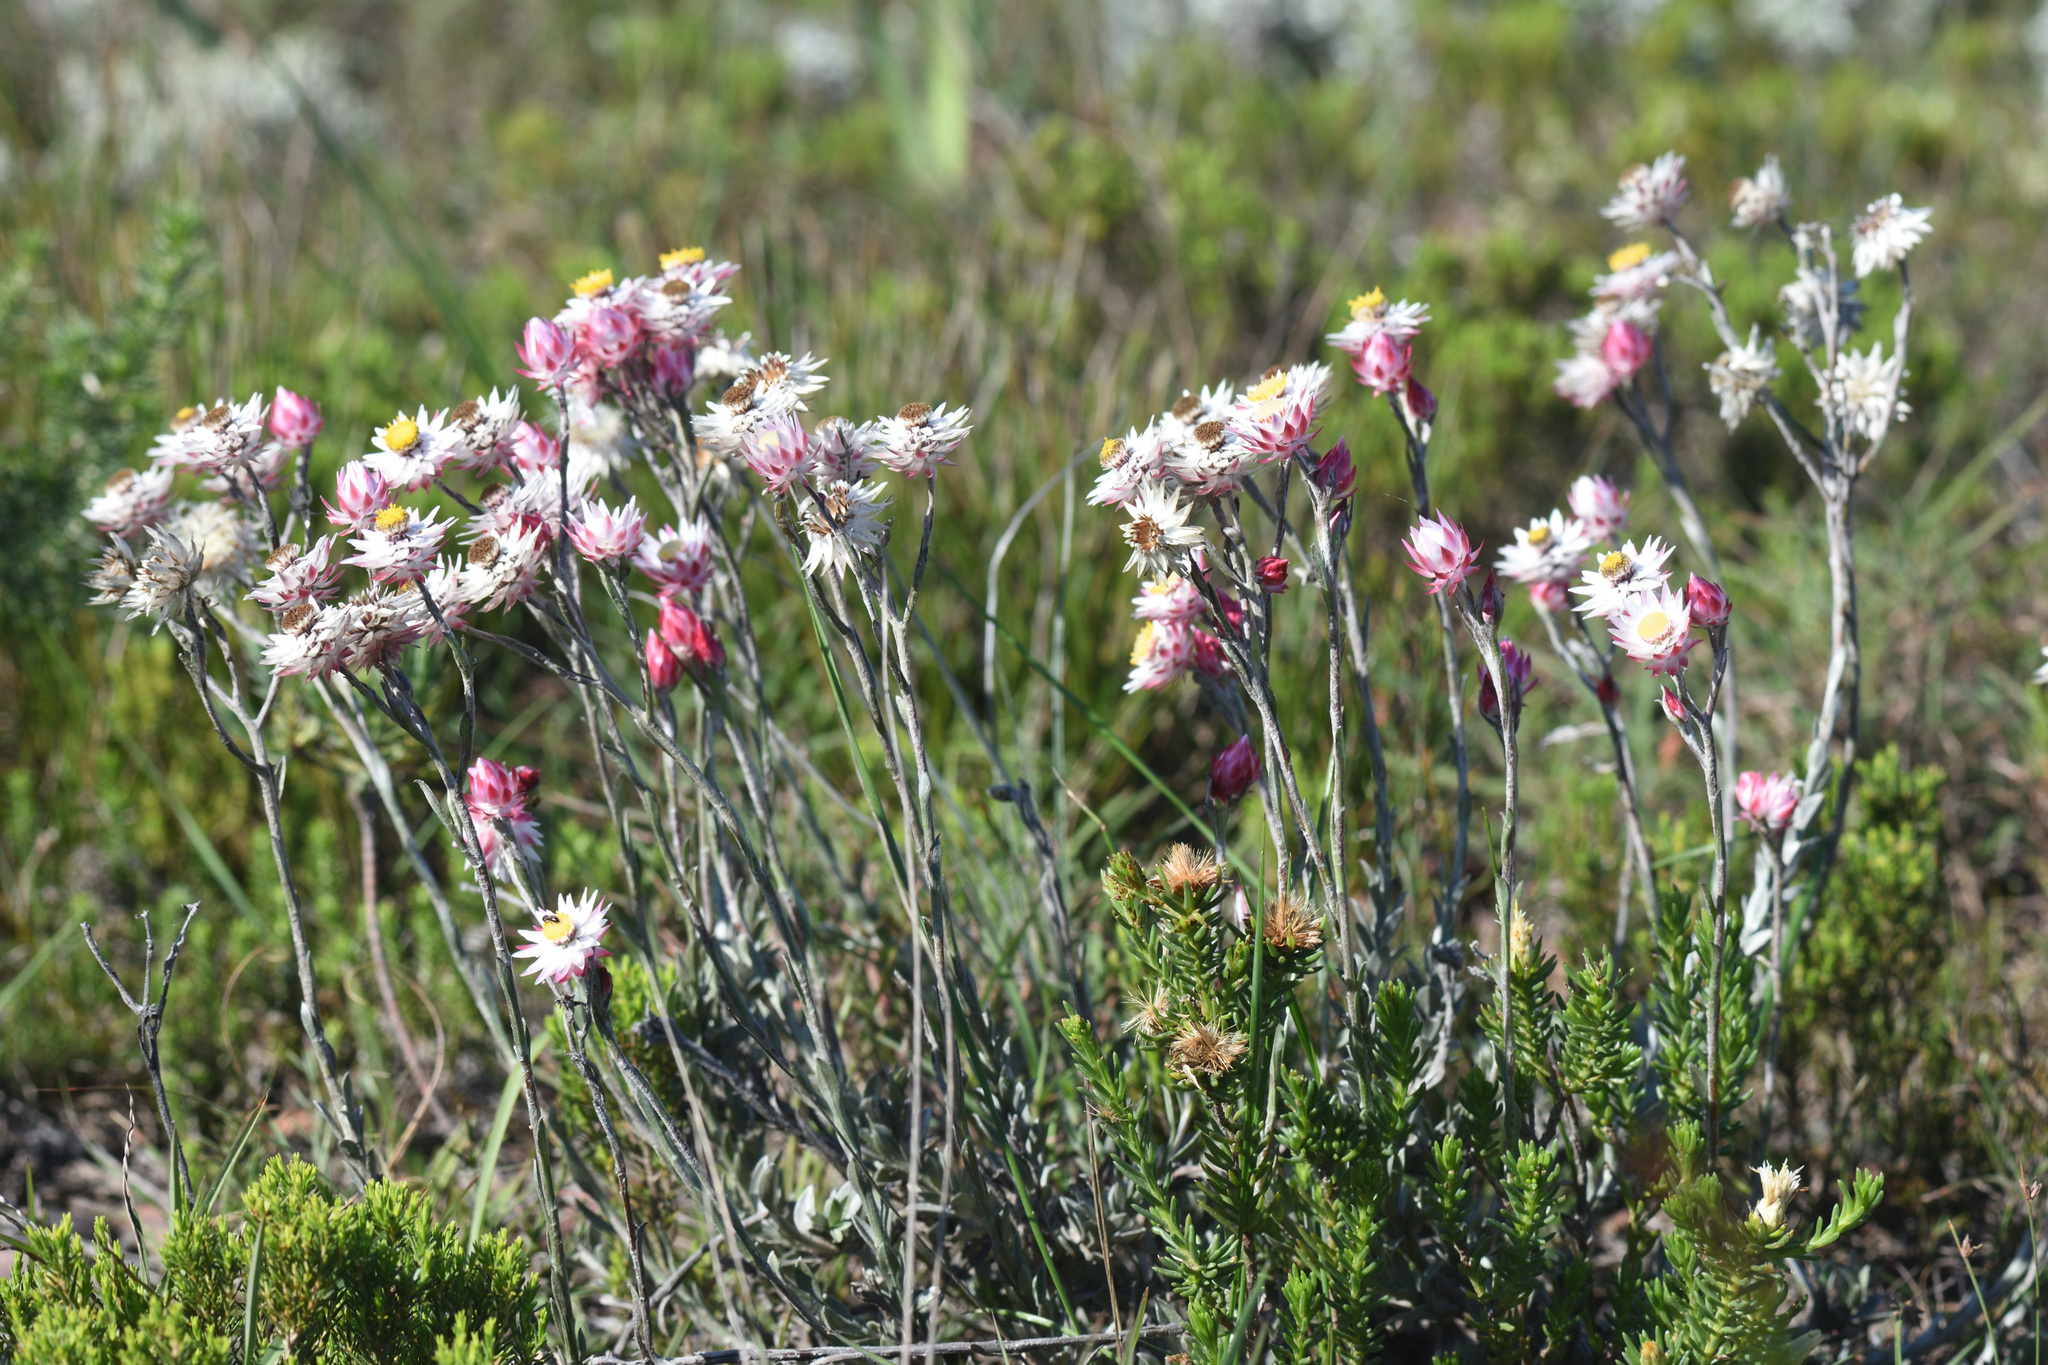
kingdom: Plantae
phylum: Tracheophyta
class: Magnoliopsida
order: Asterales
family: Asteraceae
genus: Achyranthemum
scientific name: Achyranthemum affine
